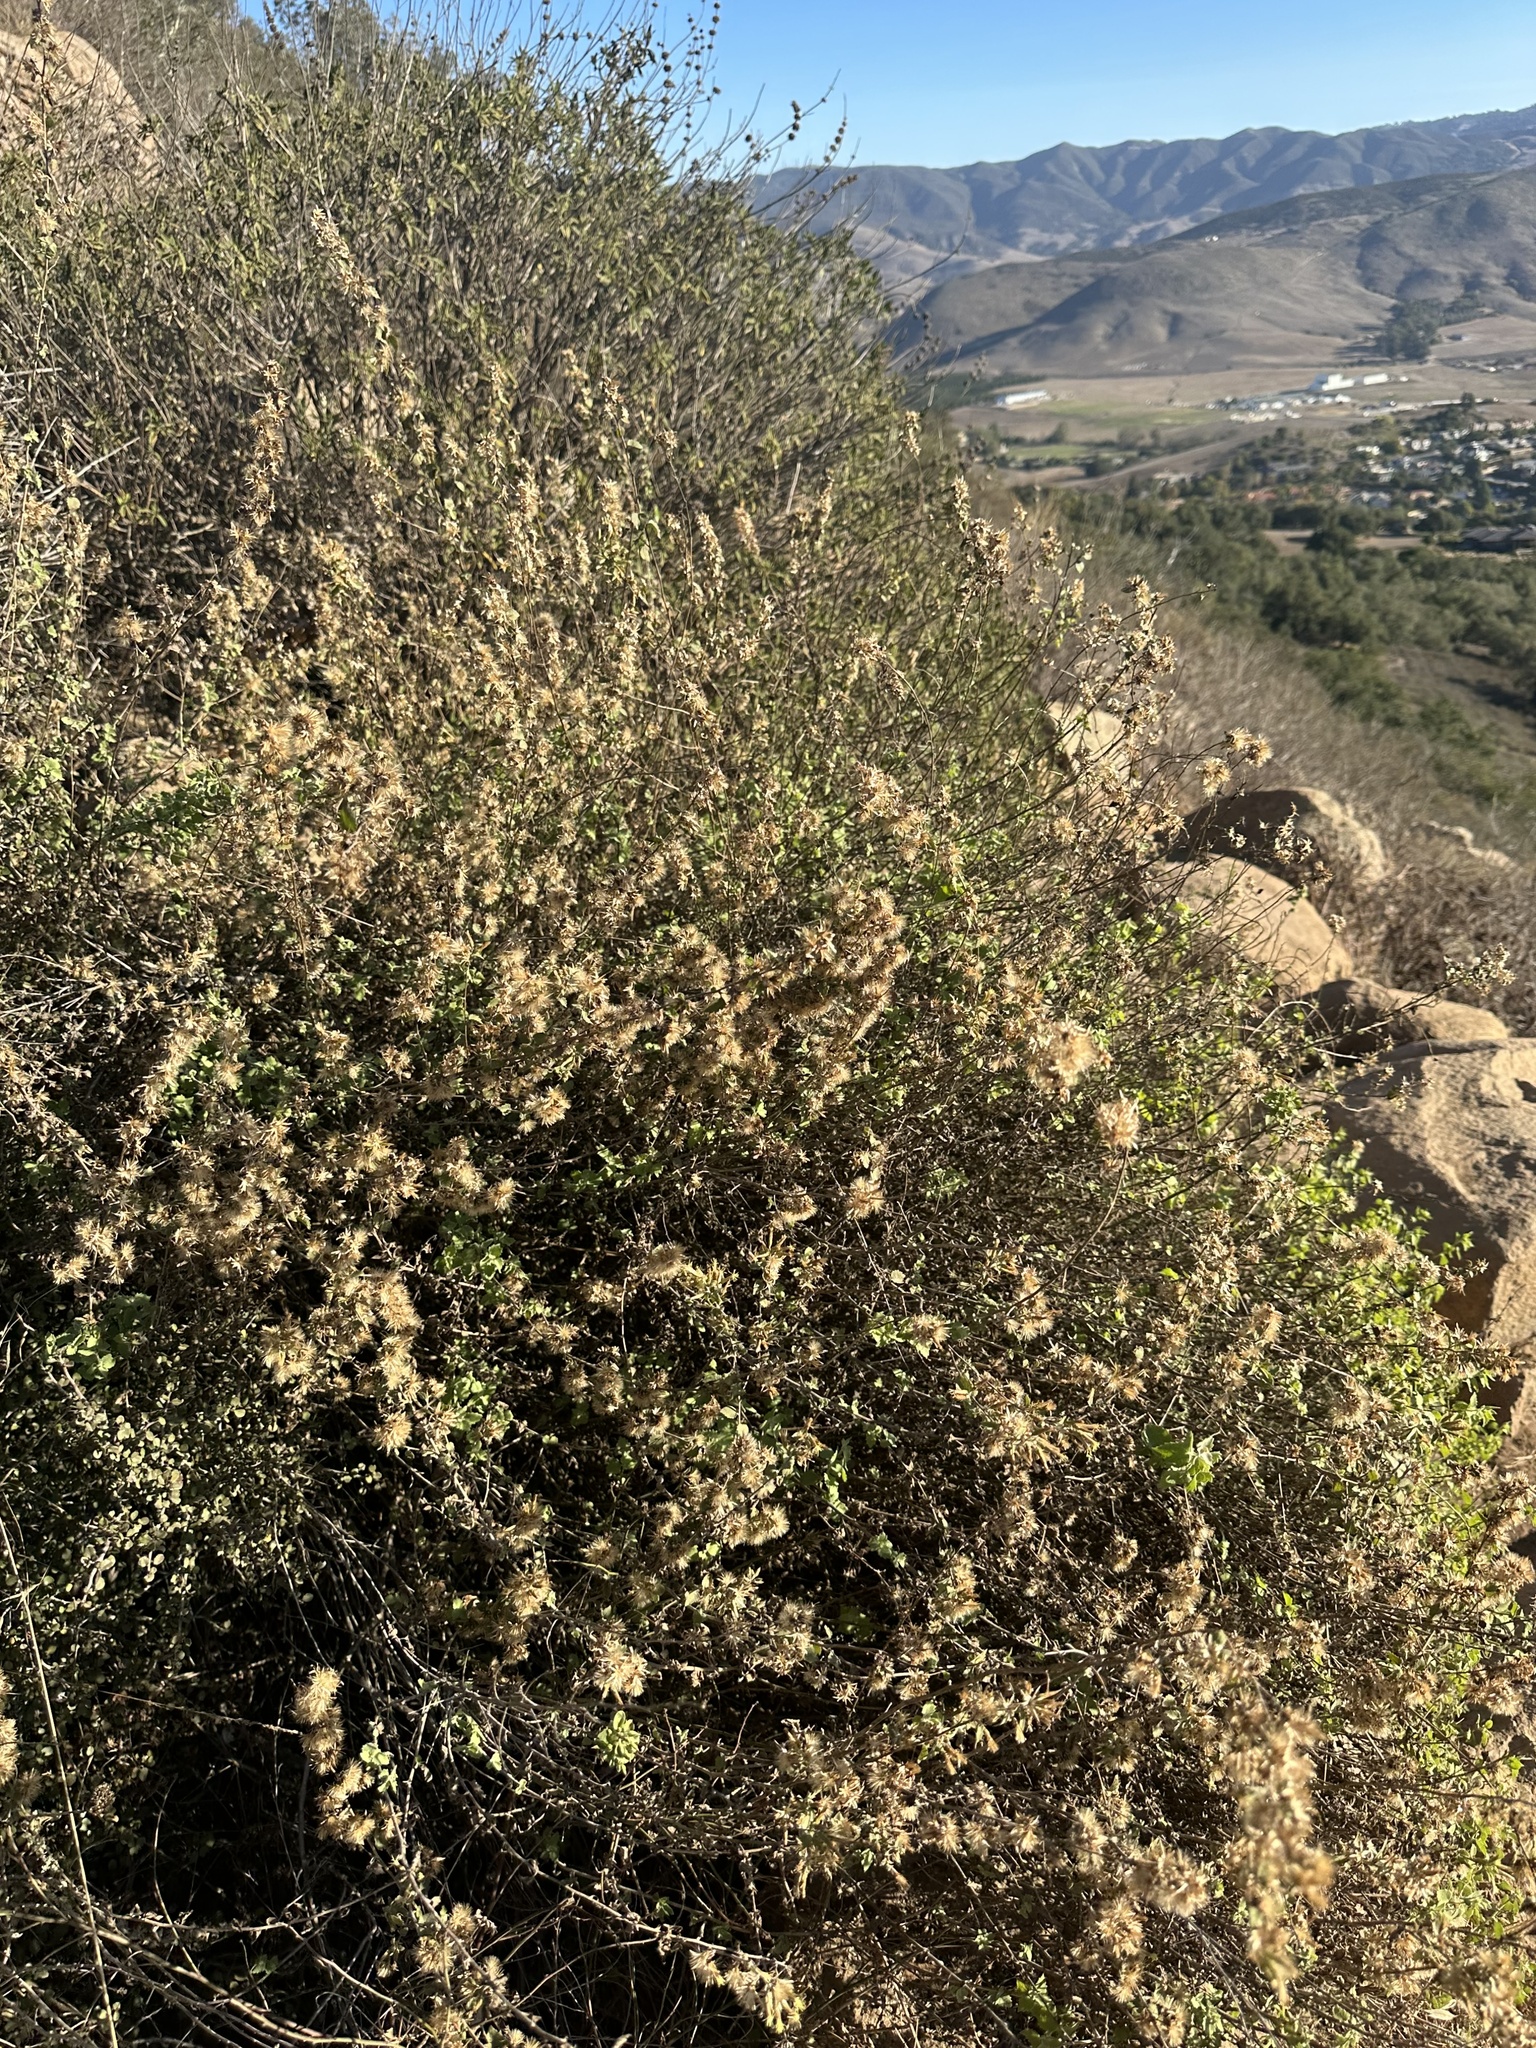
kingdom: Plantae
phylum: Tracheophyta
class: Magnoliopsida
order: Asterales
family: Asteraceae
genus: Brickellia
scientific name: Brickellia californica
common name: California brickellbush
